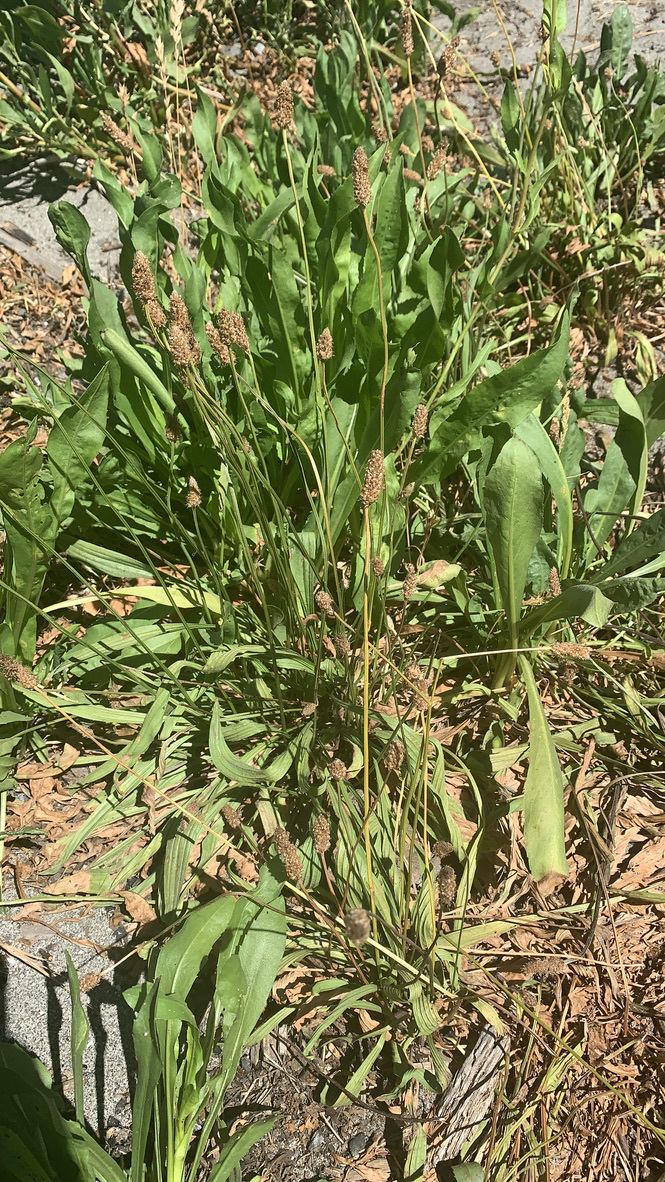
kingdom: Plantae
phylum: Tracheophyta
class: Magnoliopsida
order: Lamiales
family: Plantaginaceae
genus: Plantago
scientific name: Plantago lanceolata
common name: Ribwort plantain
